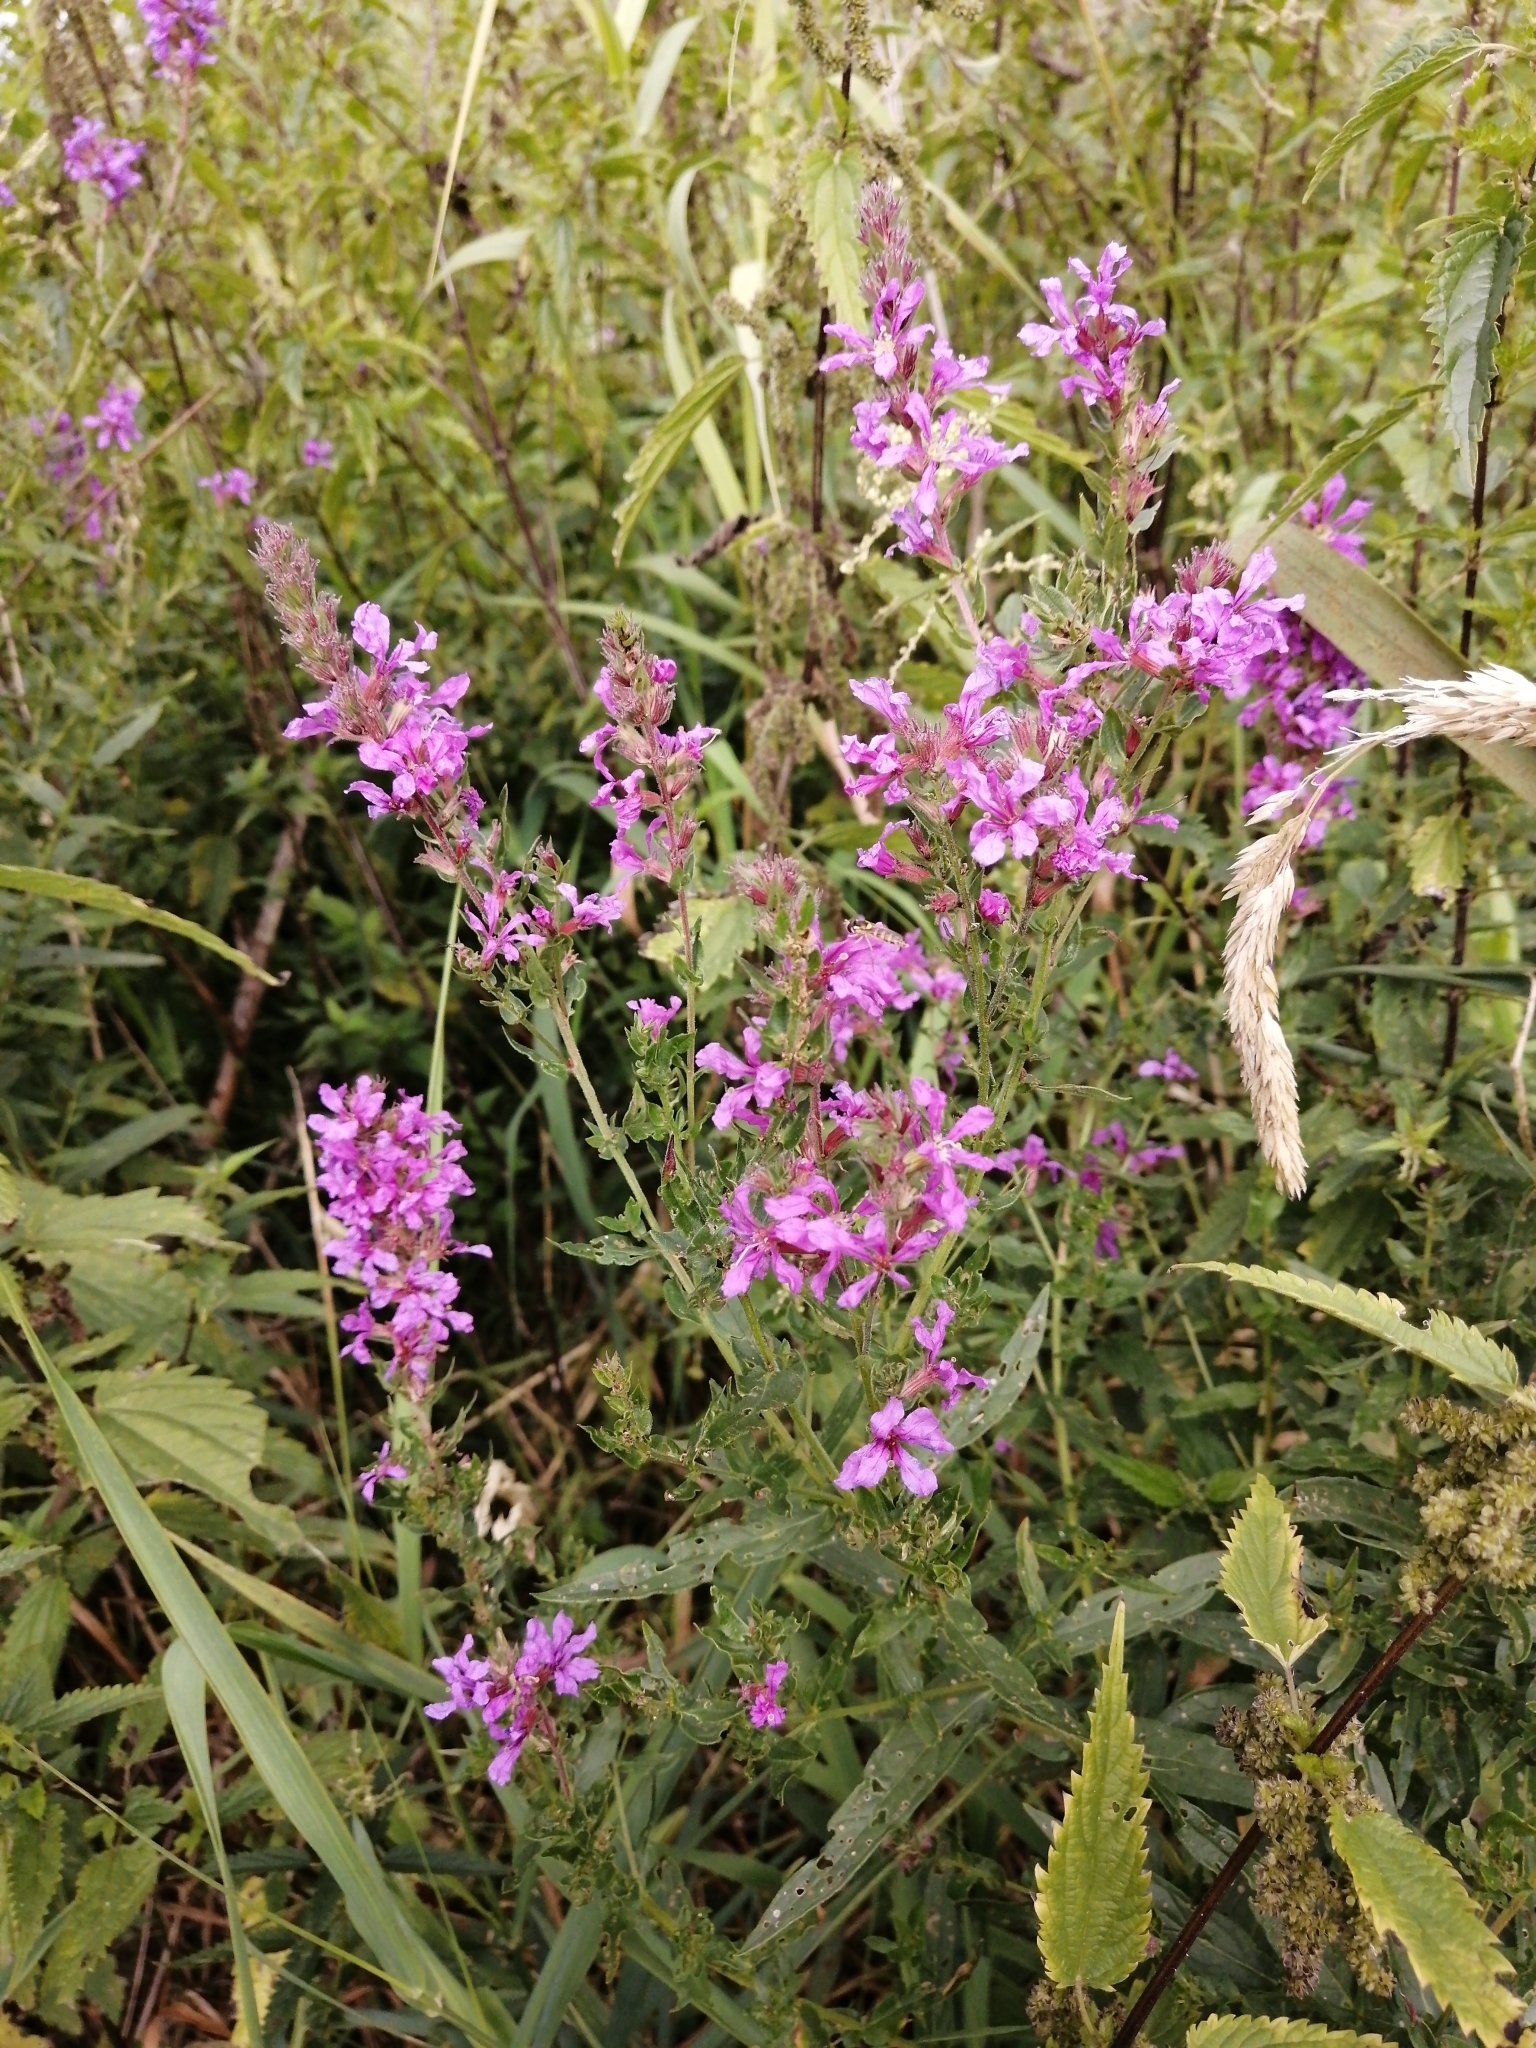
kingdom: Plantae
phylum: Tracheophyta
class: Magnoliopsida
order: Myrtales
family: Lythraceae
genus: Lythrum
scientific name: Lythrum salicaria
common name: Purple loosestrife
